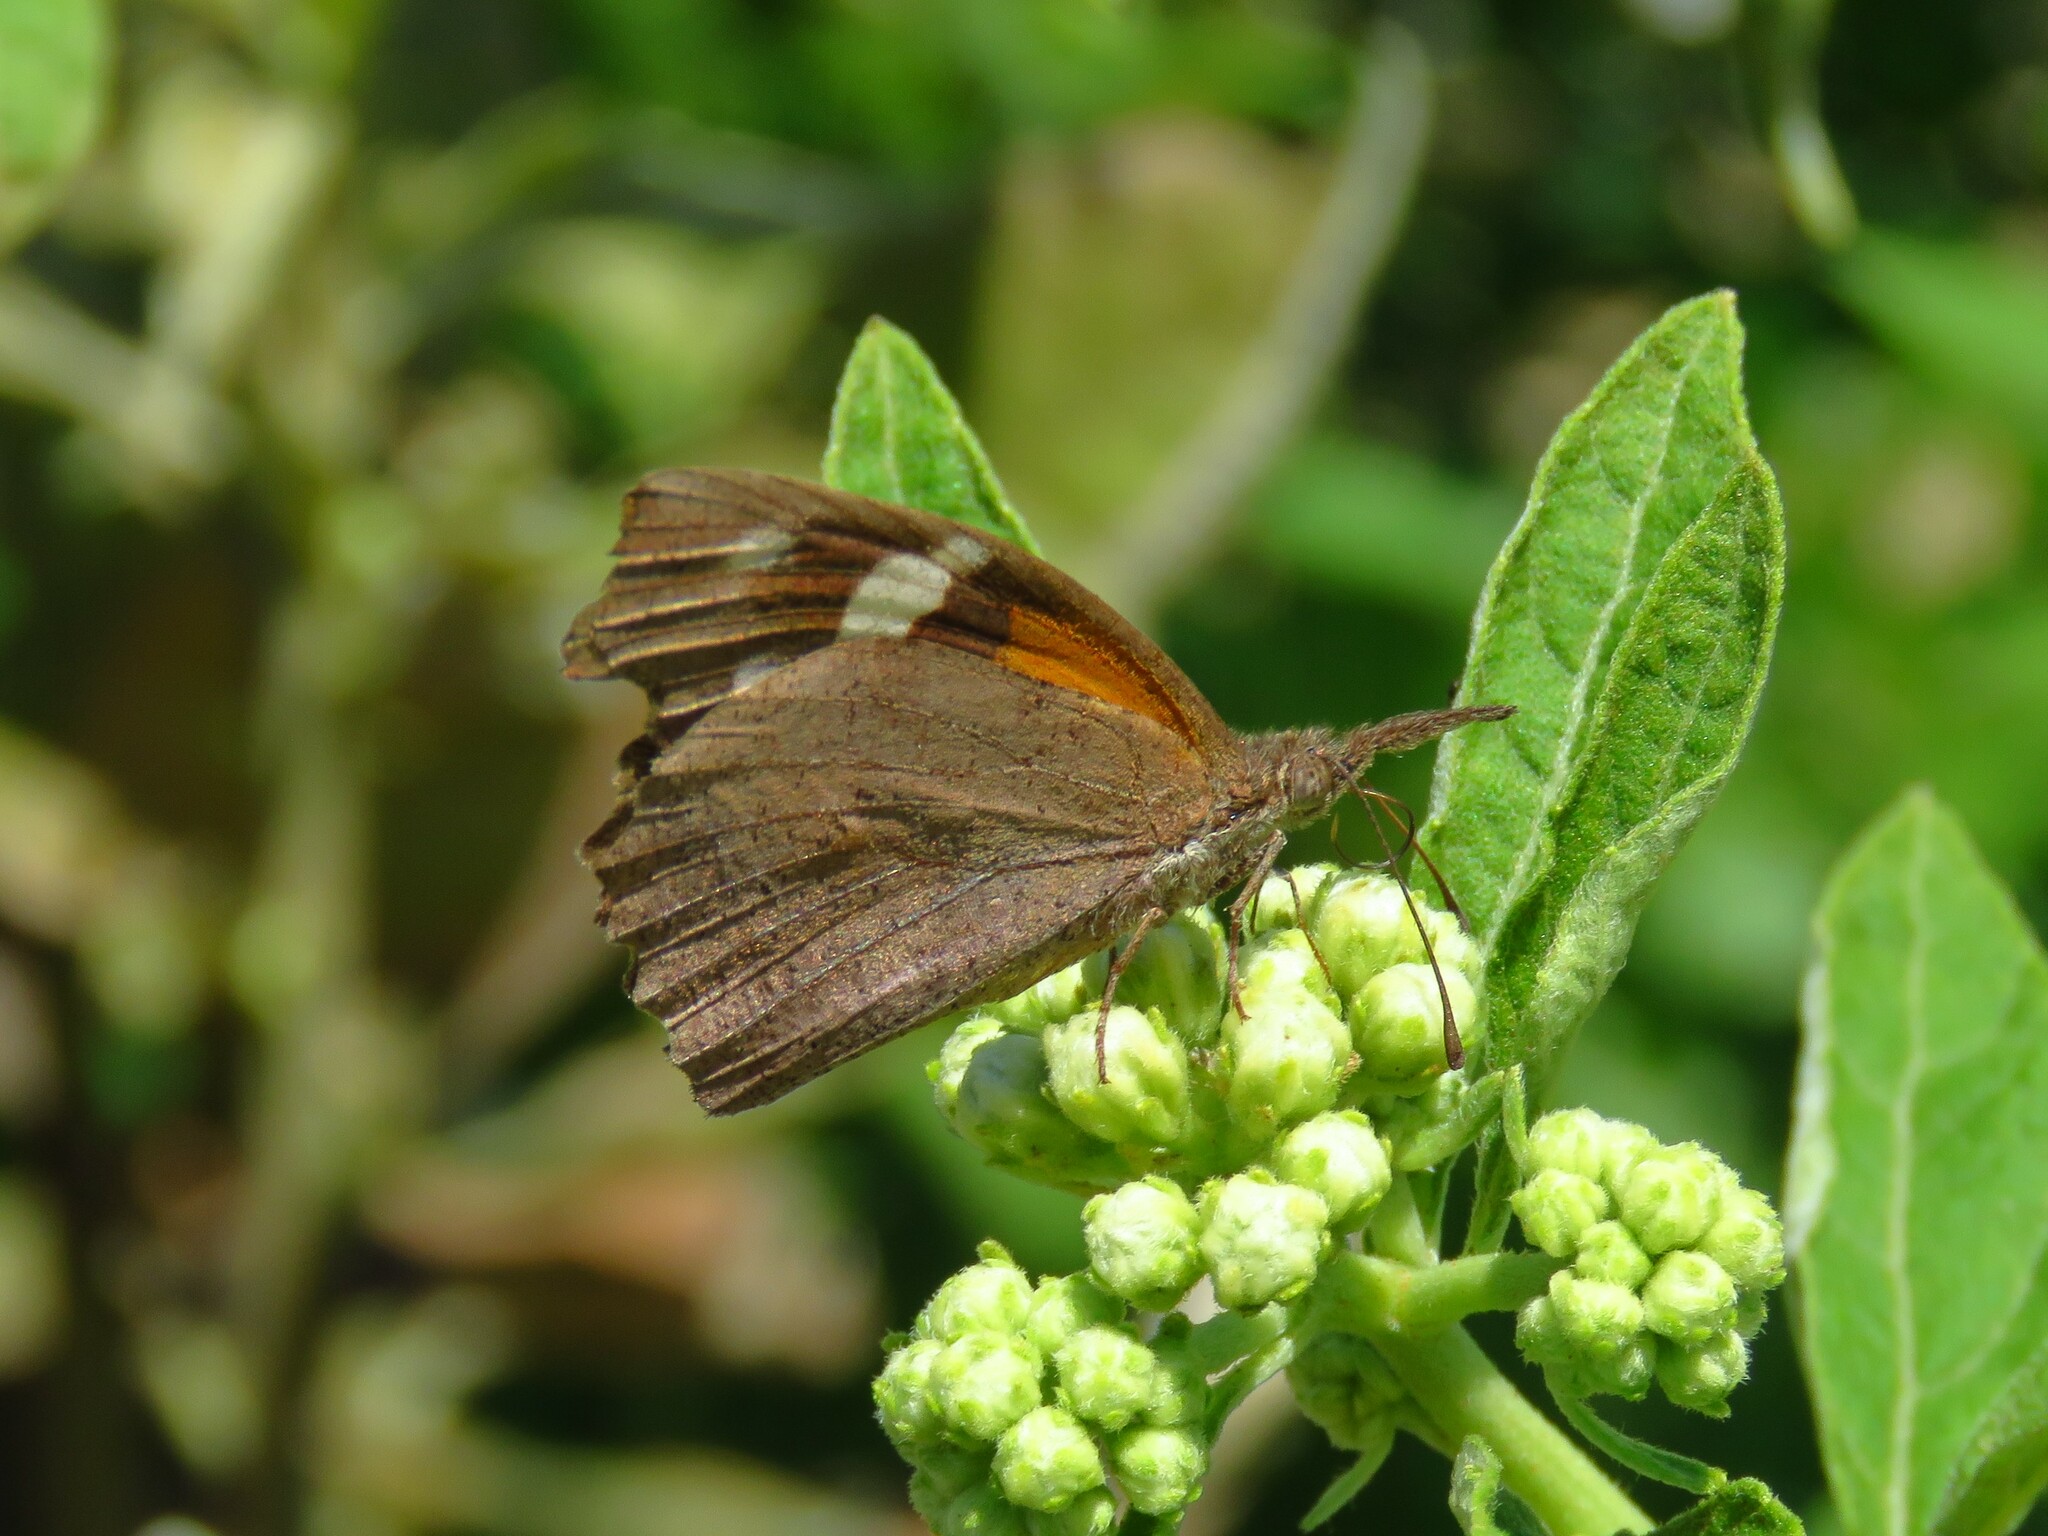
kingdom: Animalia
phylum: Arthropoda
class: Insecta
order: Lepidoptera
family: Nymphalidae
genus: Libytheana
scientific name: Libytheana carinenta
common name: American snout
